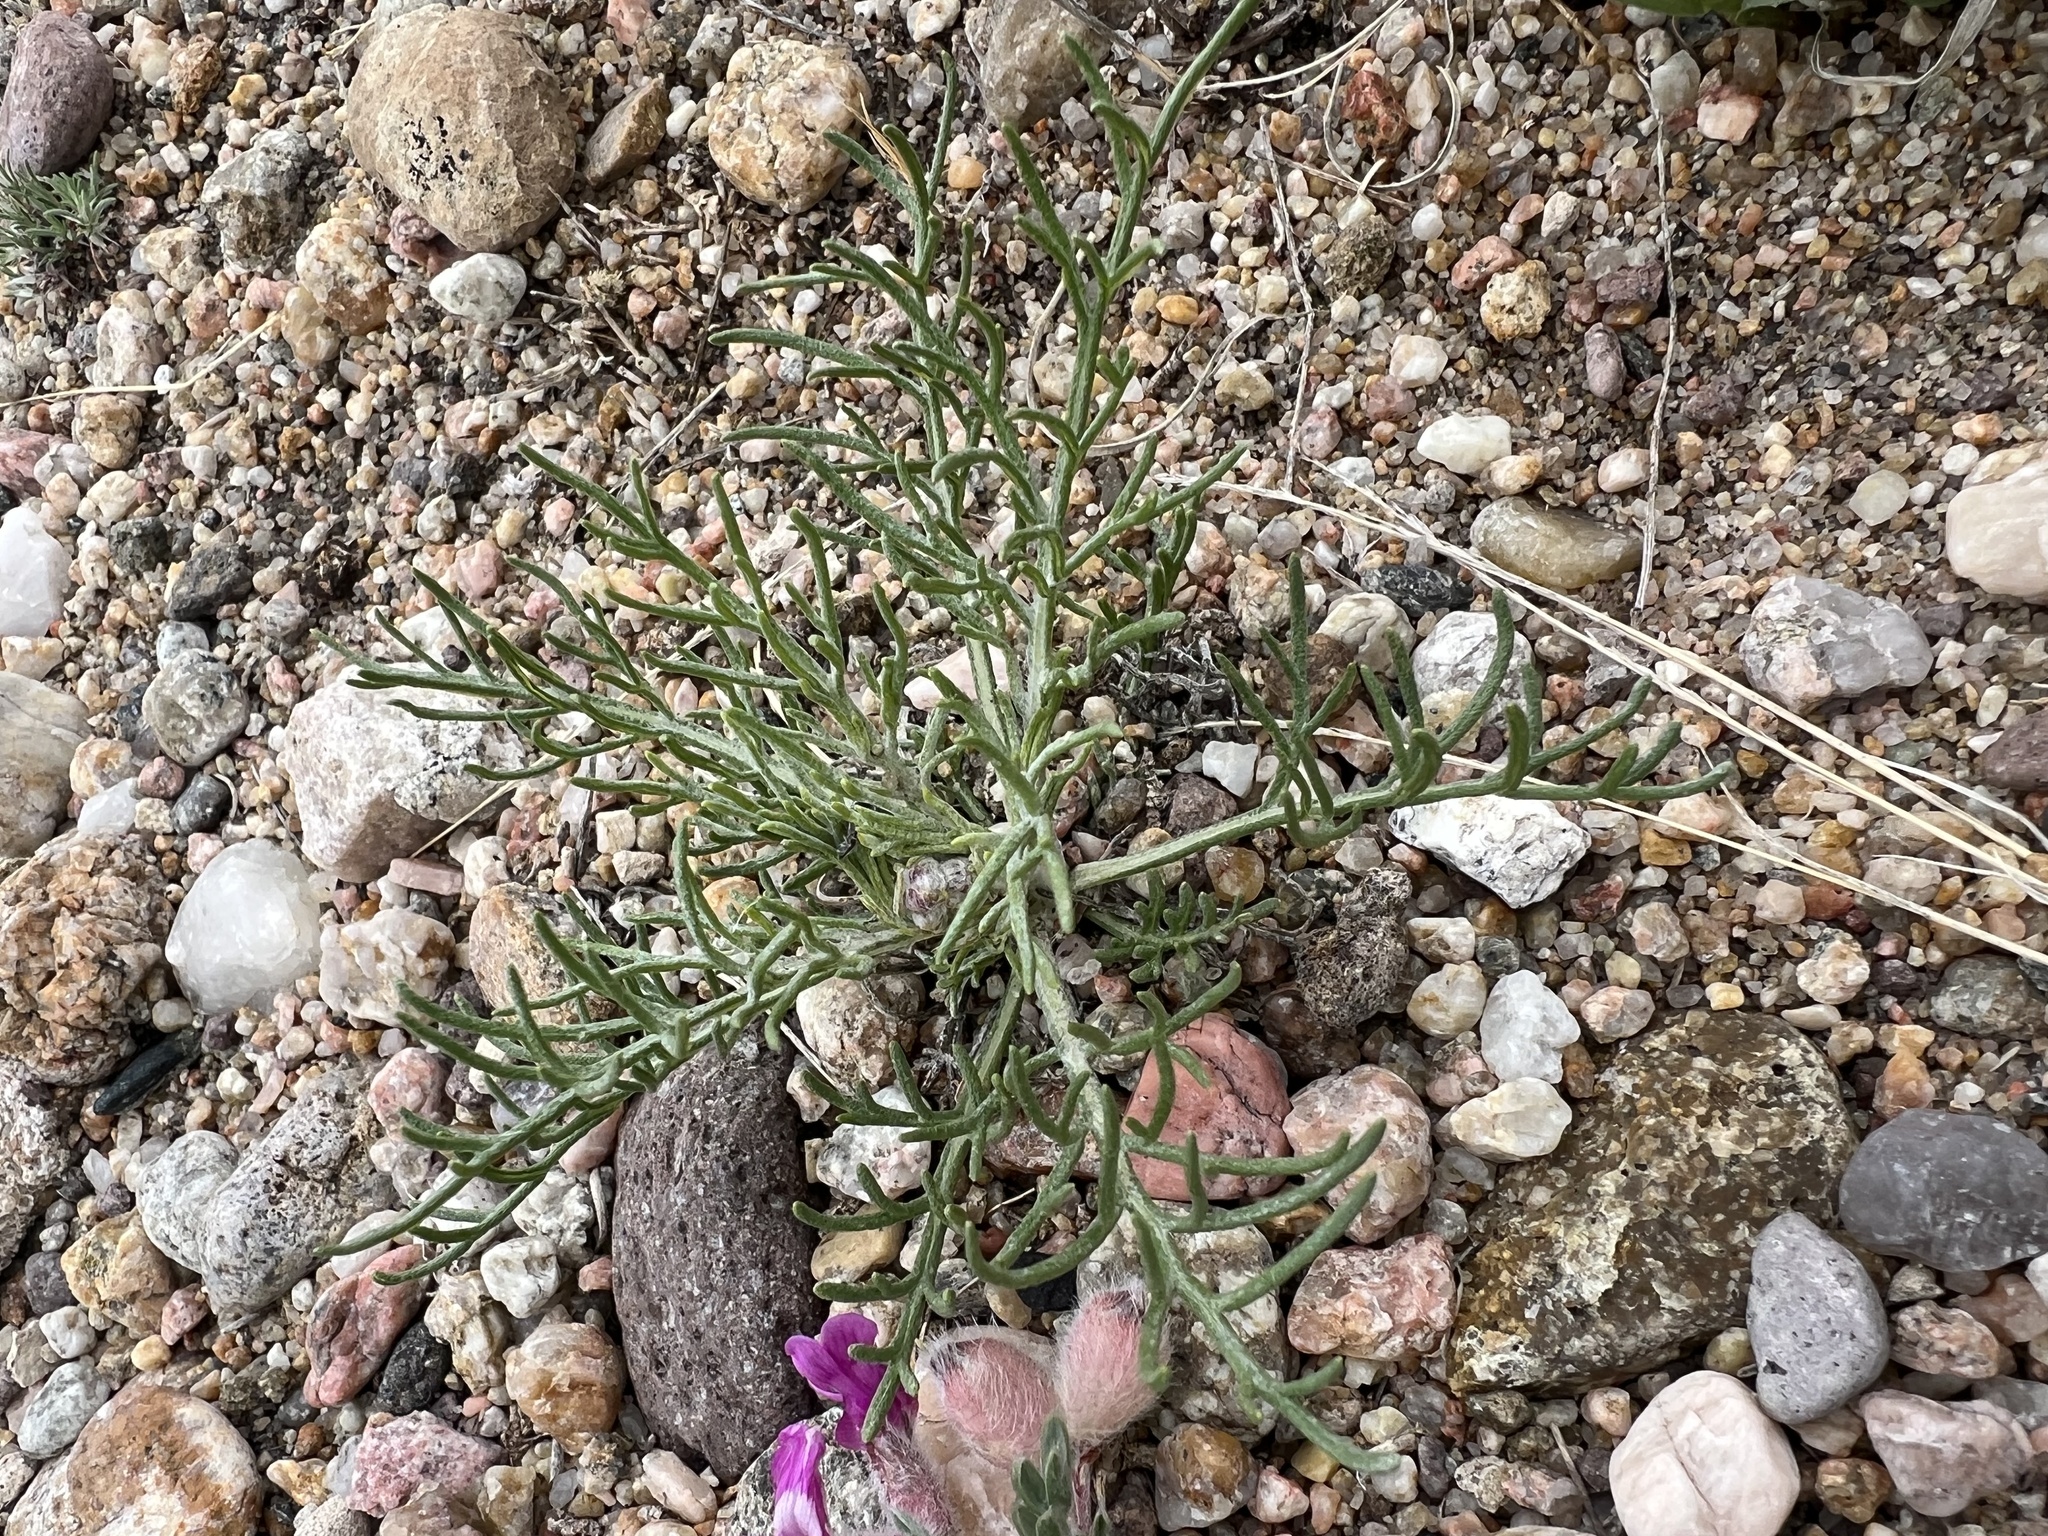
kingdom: Plantae
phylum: Tracheophyta
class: Magnoliopsida
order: Asterales
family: Asteraceae
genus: Hymenopappus
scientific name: Hymenopappus filifolius
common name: Columbia cutleaf
